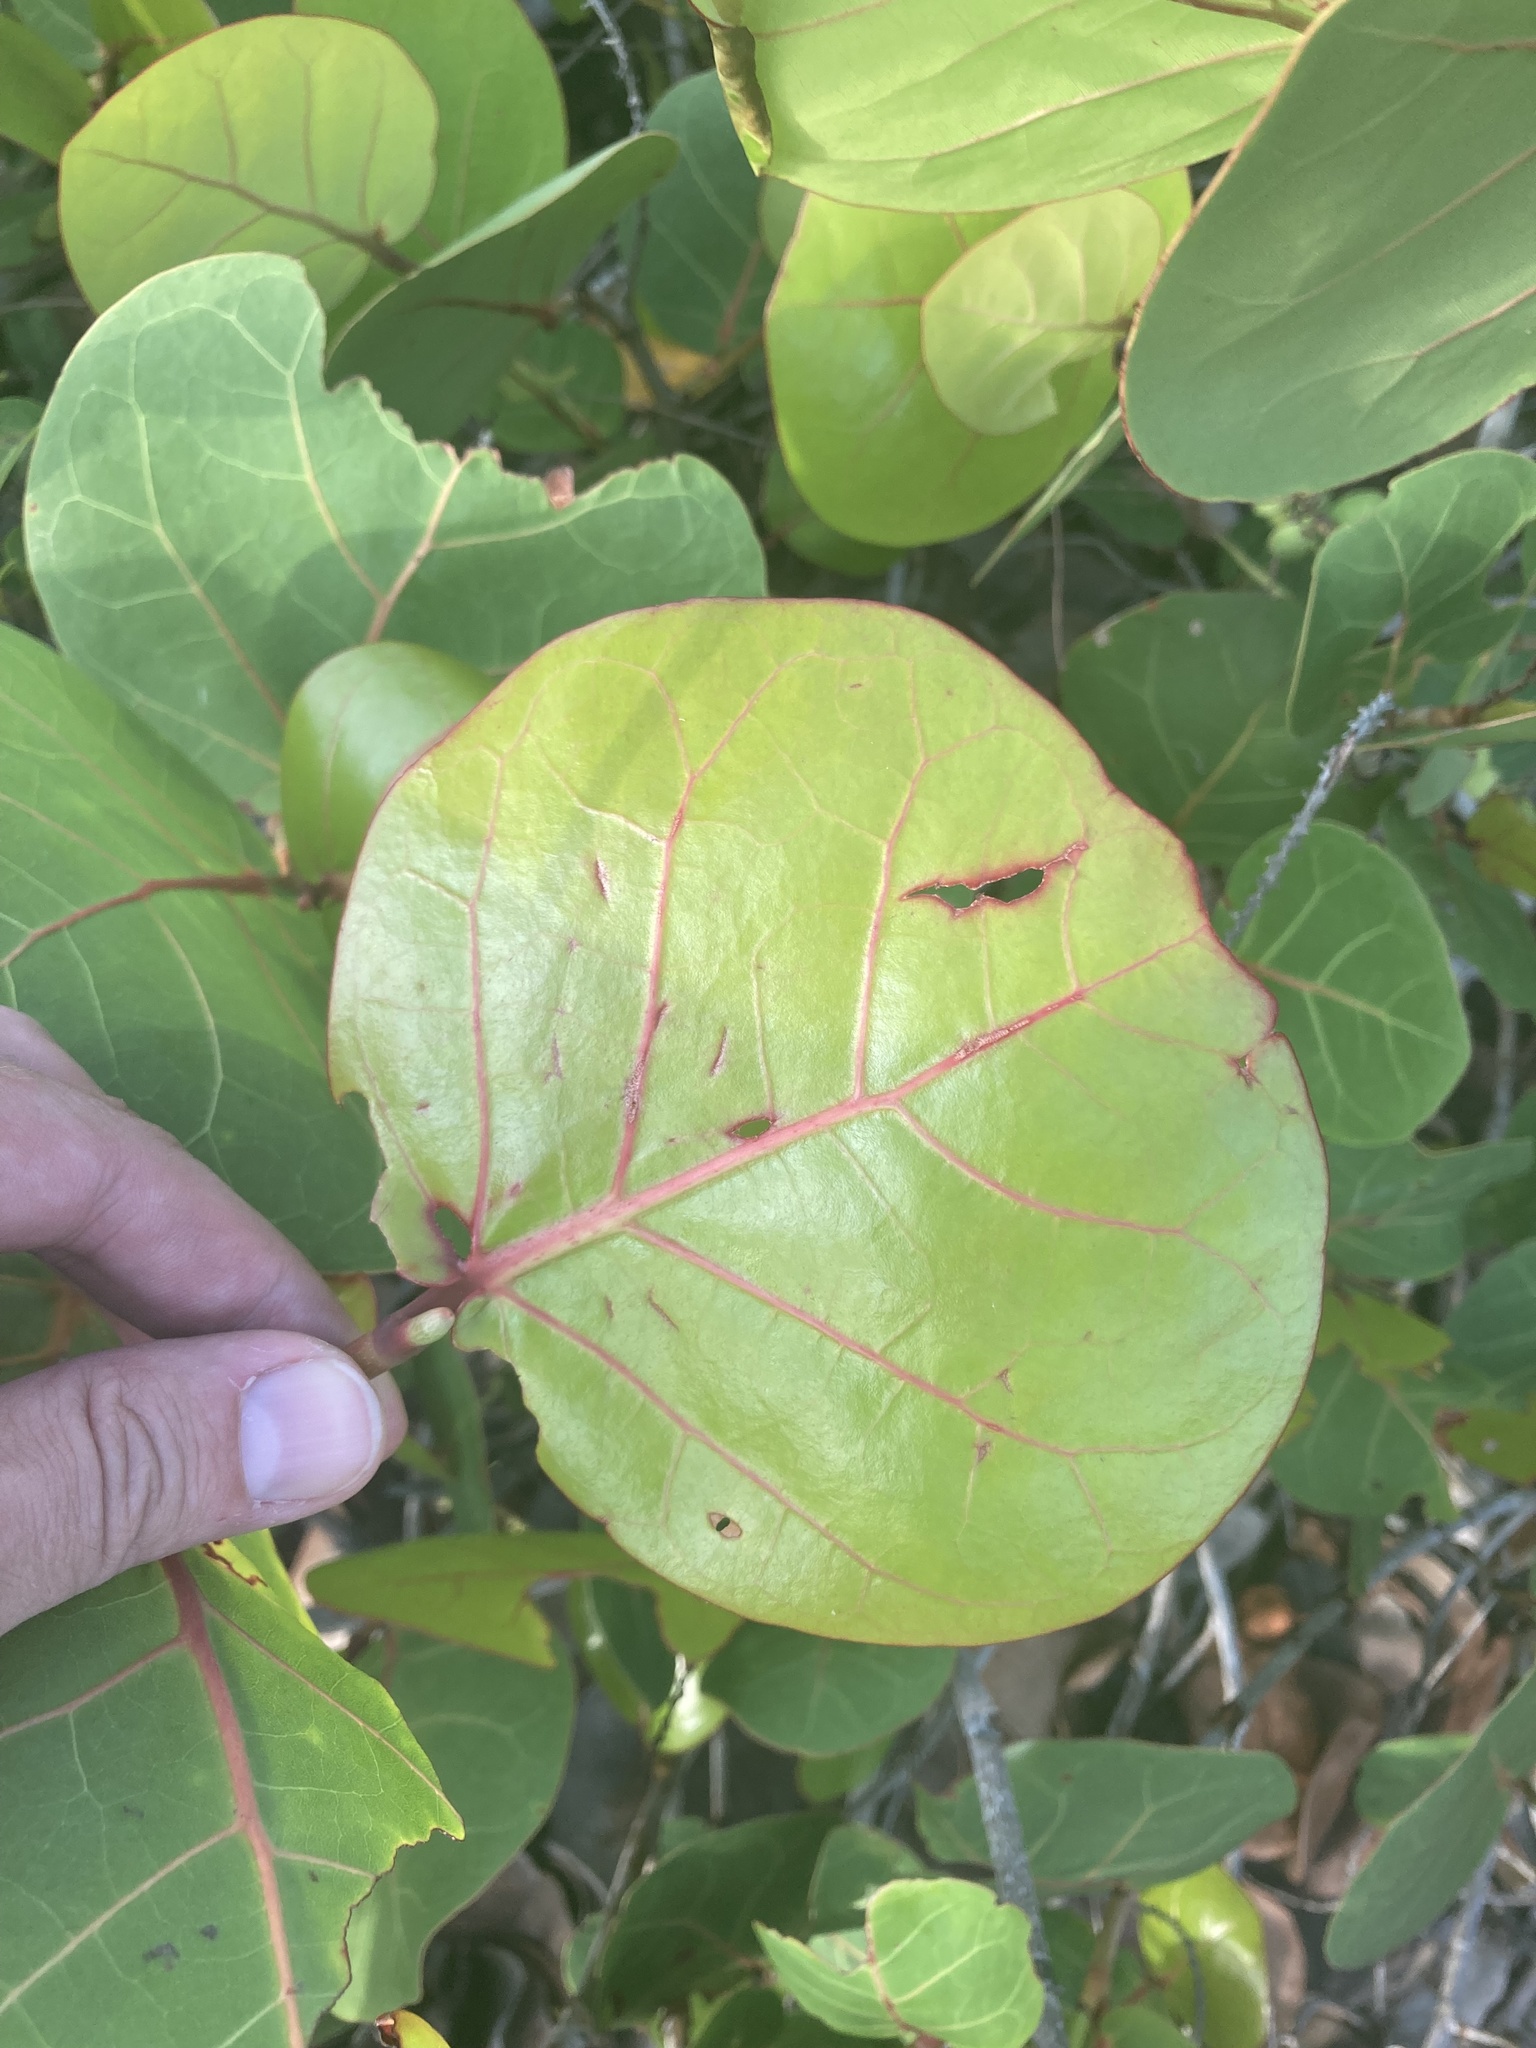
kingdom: Plantae
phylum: Tracheophyta
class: Magnoliopsida
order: Caryophyllales
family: Polygonaceae
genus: Coccoloba
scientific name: Coccoloba uvifera
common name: Seagrape
